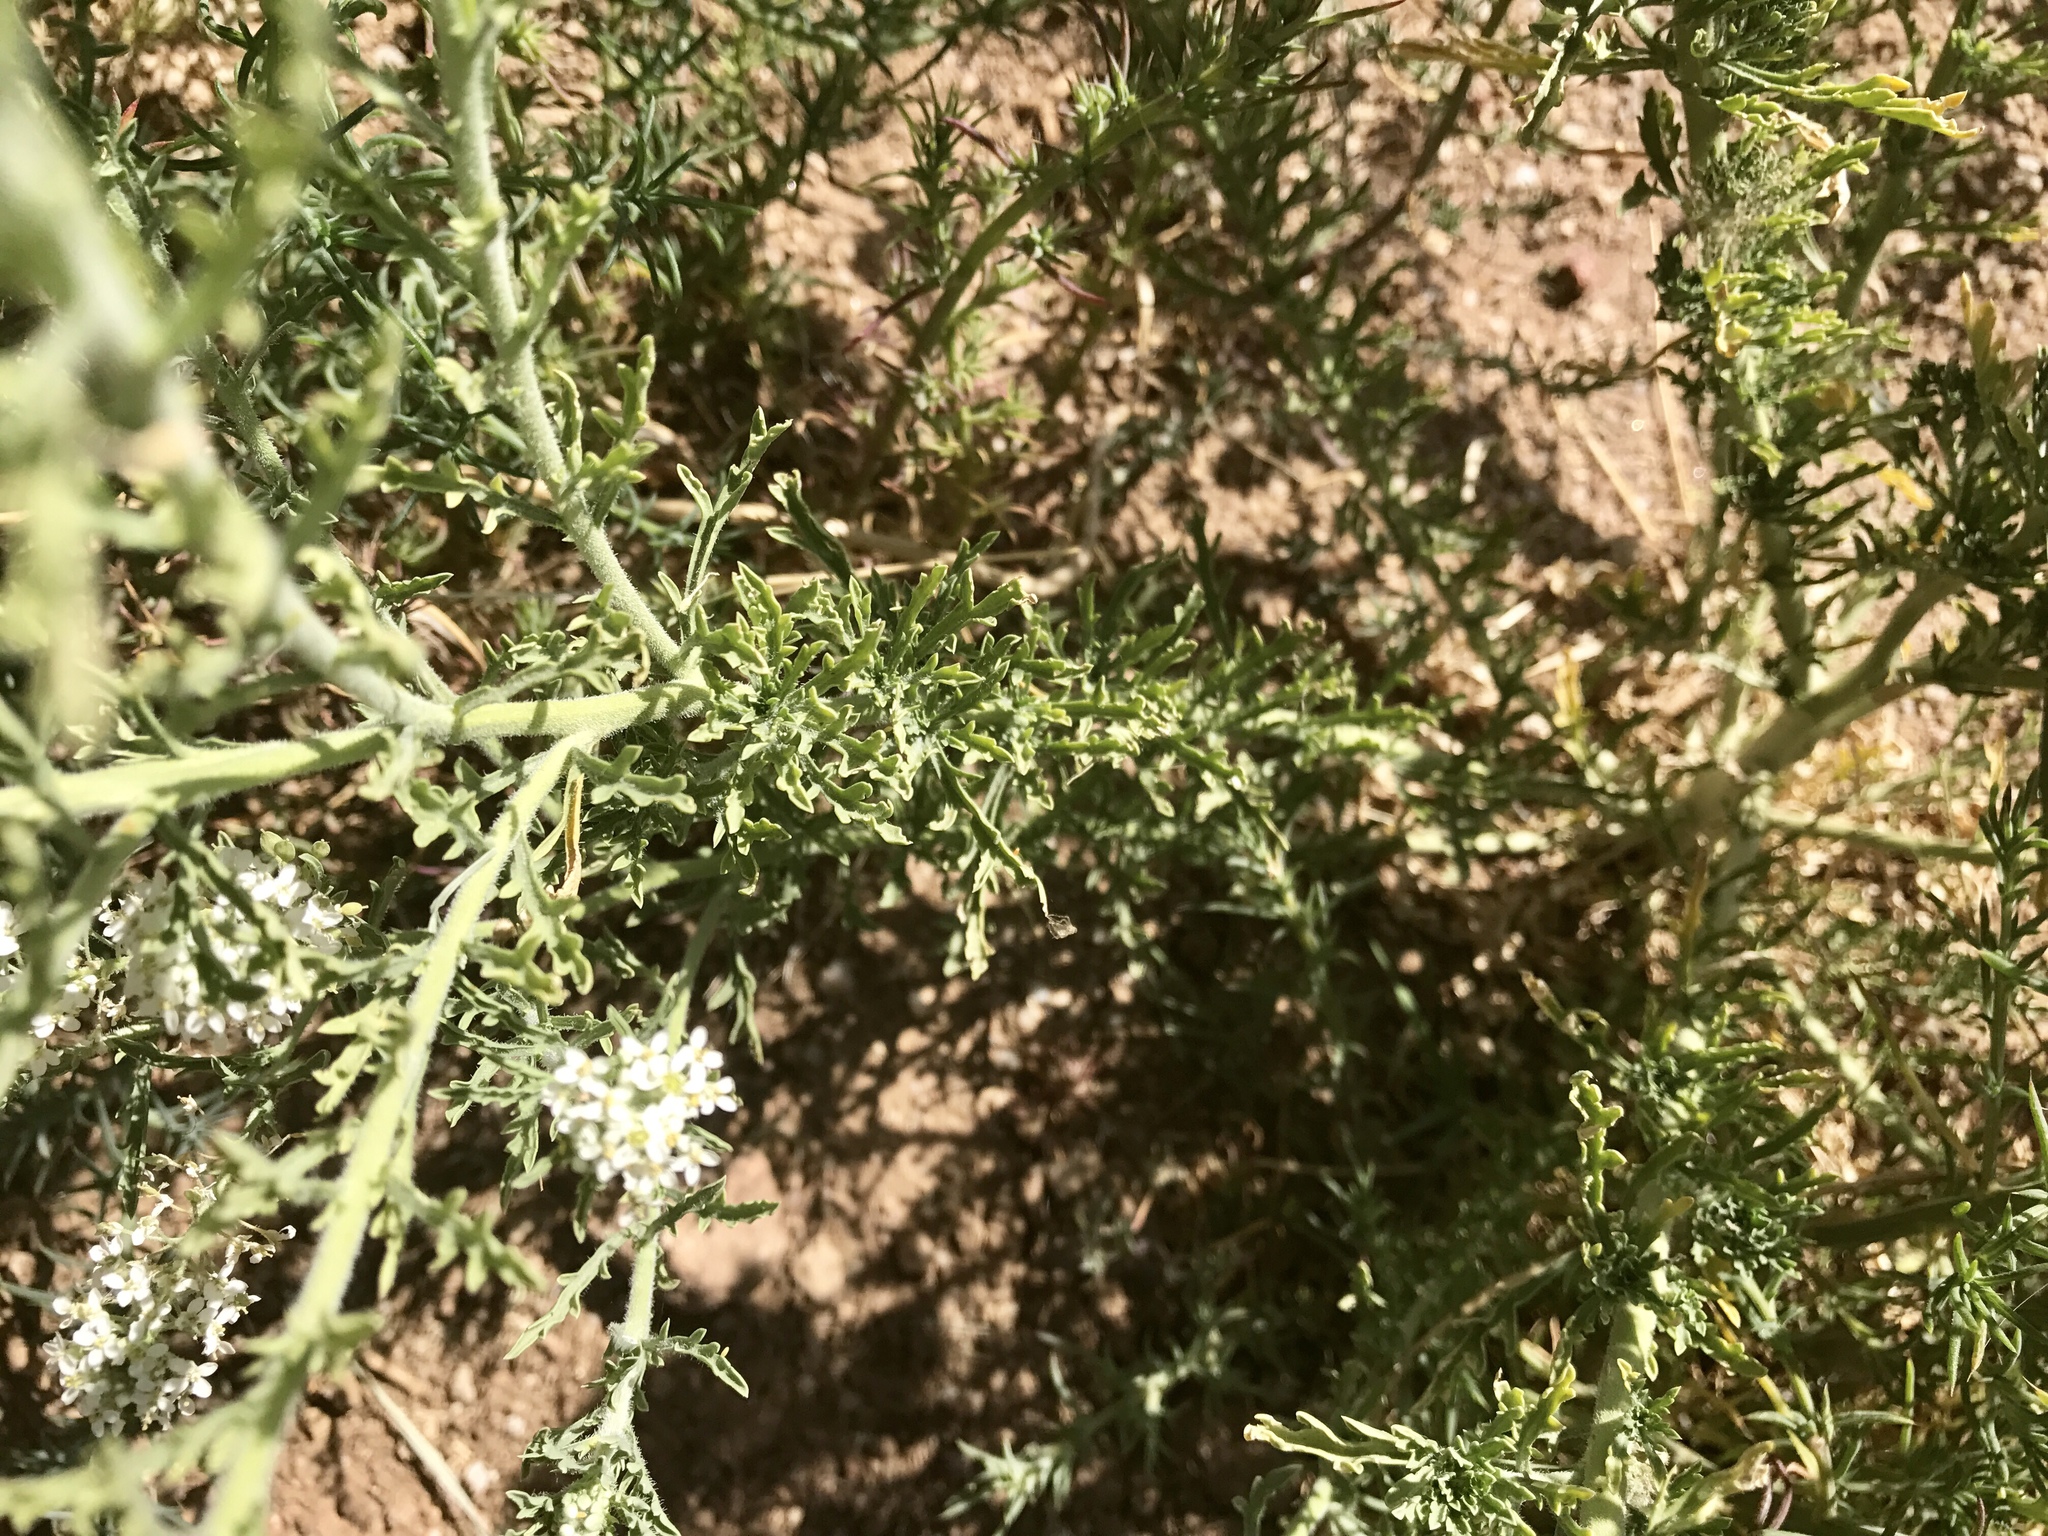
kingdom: Plantae
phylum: Tracheophyta
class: Magnoliopsida
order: Brassicales
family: Brassicaceae
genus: Lepidium
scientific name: Lepidium thurberi
